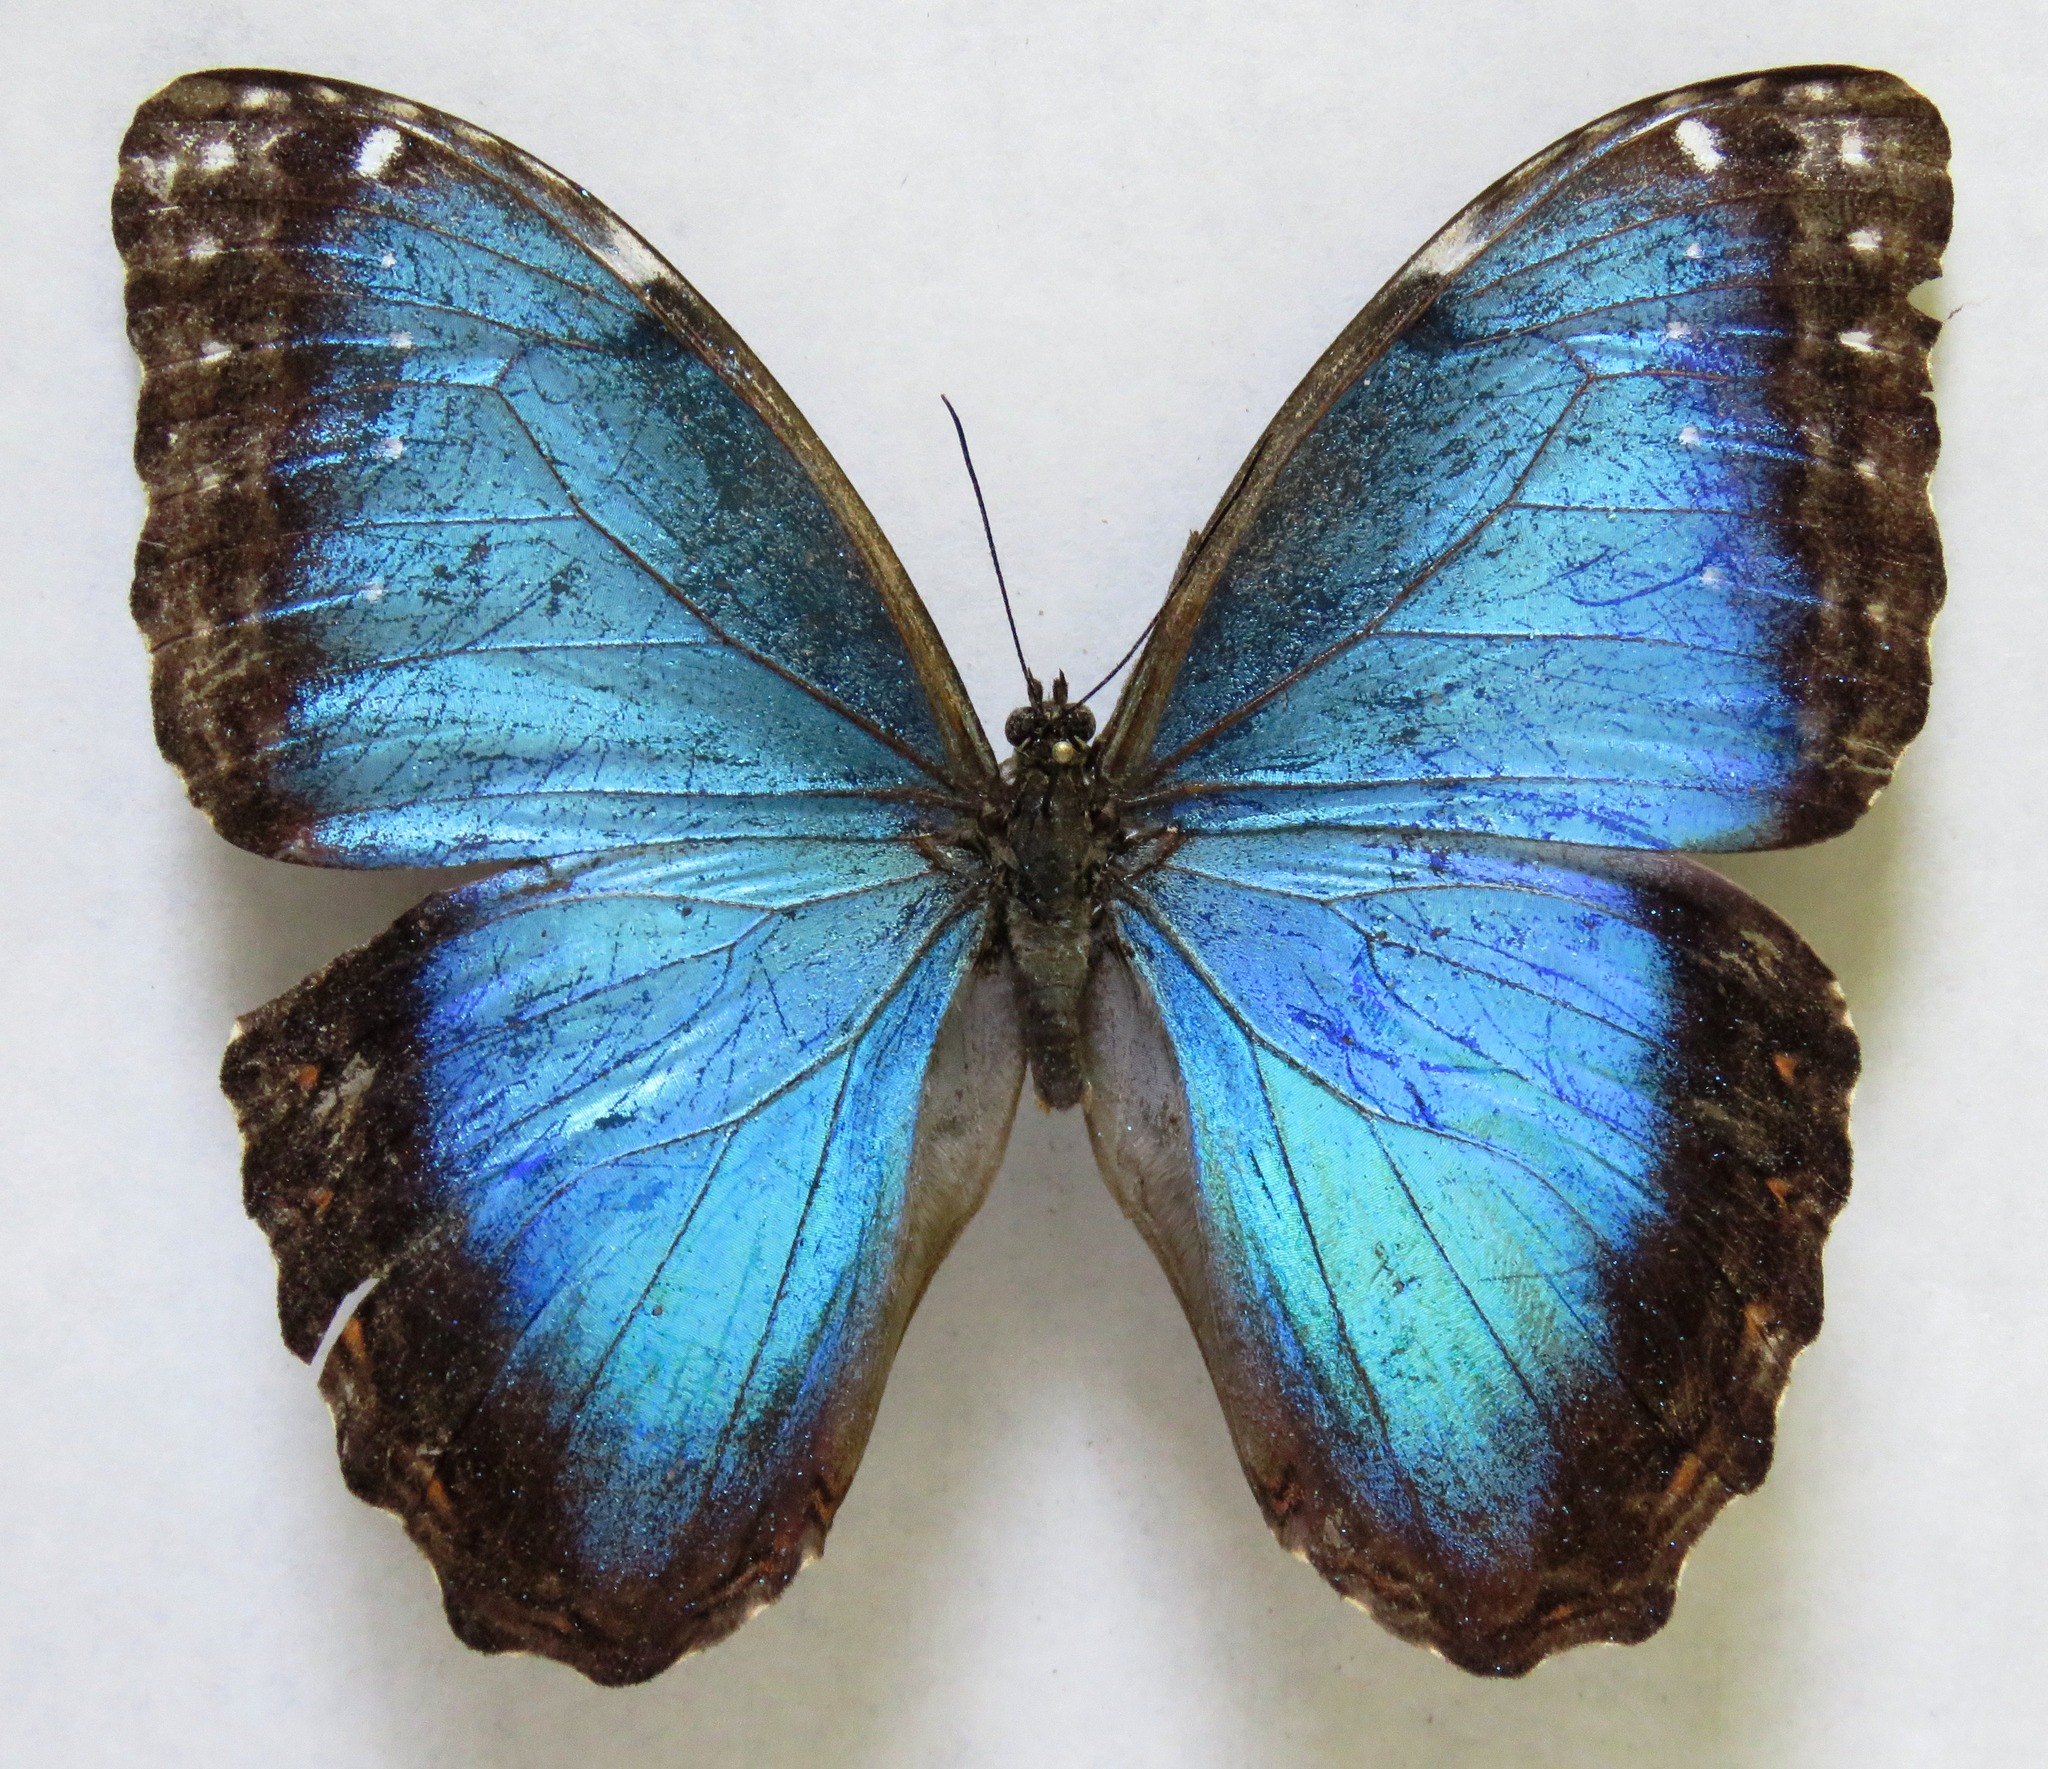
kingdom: Animalia
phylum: Arthropoda
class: Insecta
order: Lepidoptera
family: Nymphalidae
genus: Morpho
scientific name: Morpho helenor
